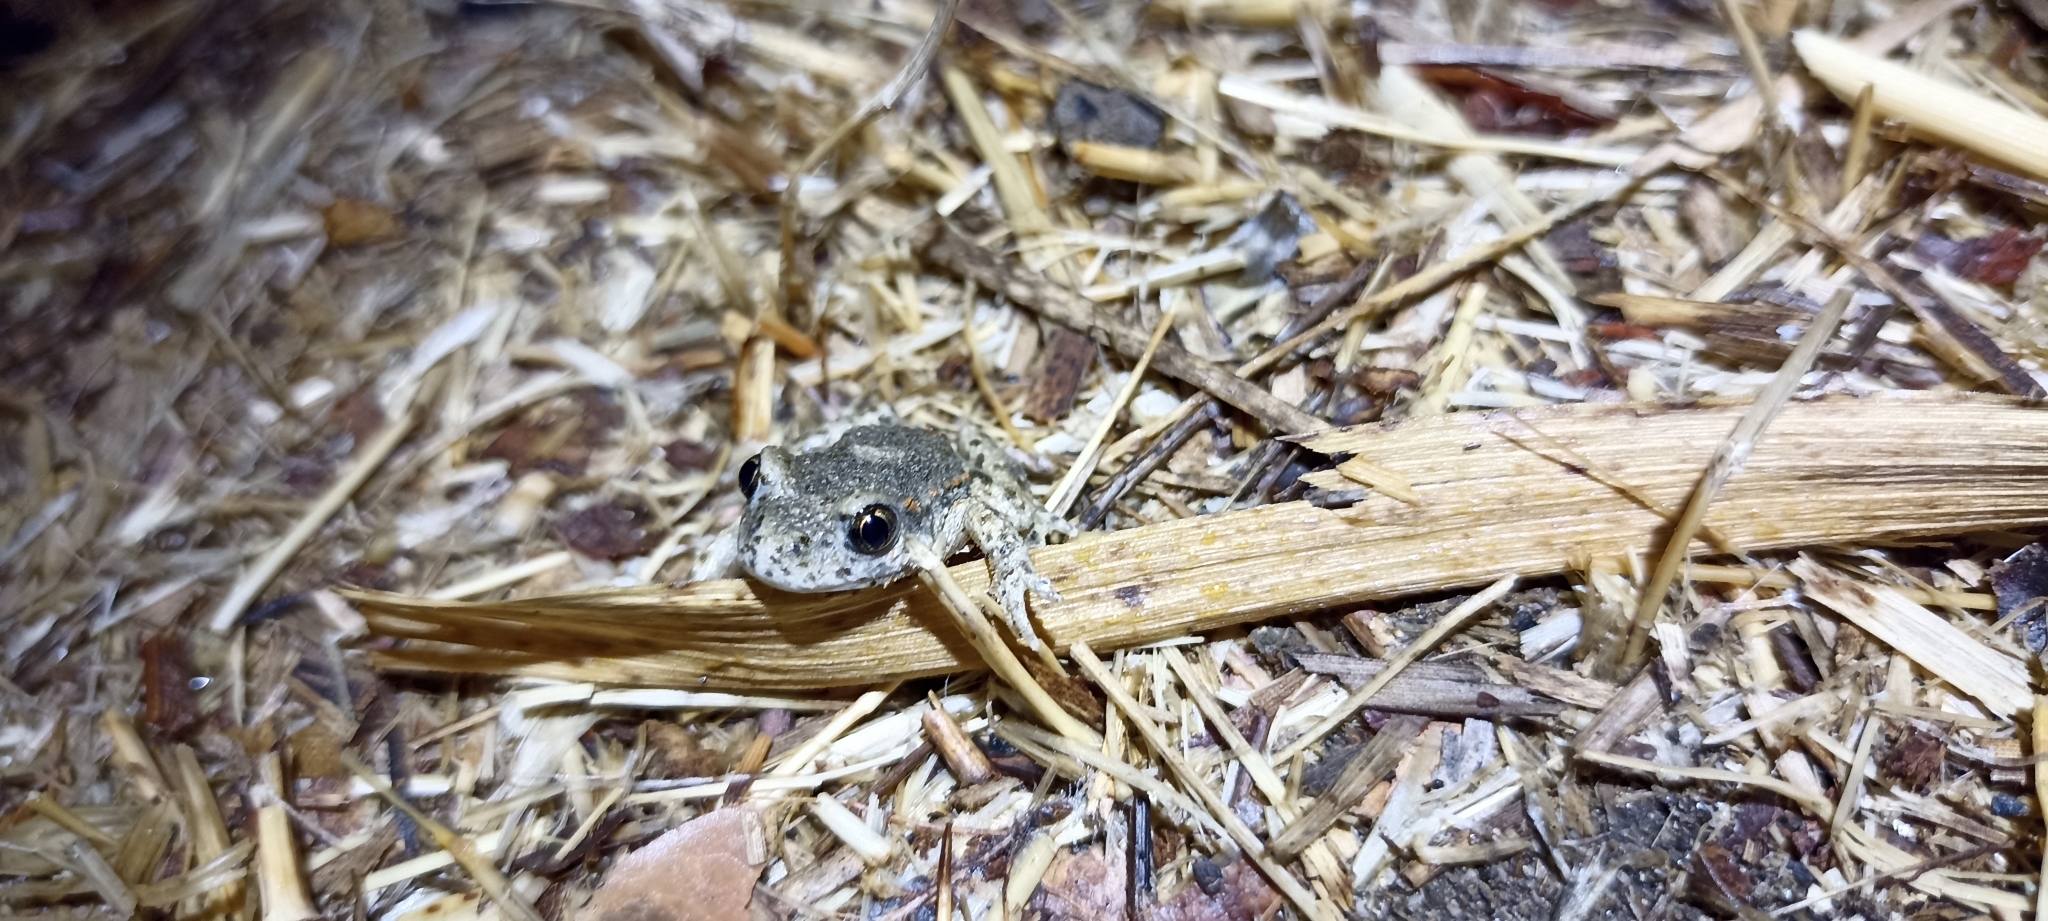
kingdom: Animalia
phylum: Chordata
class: Amphibia
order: Anura
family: Alytidae
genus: Alytes
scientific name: Alytes obstetricans
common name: Midwife toad
